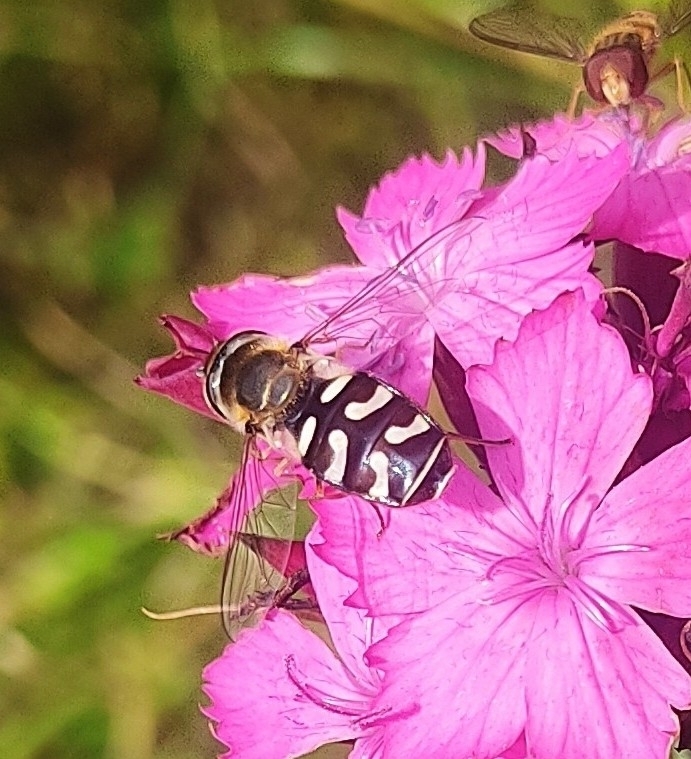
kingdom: Animalia
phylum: Arthropoda
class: Insecta
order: Diptera
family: Syrphidae
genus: Scaeva
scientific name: Scaeva pyrastri
